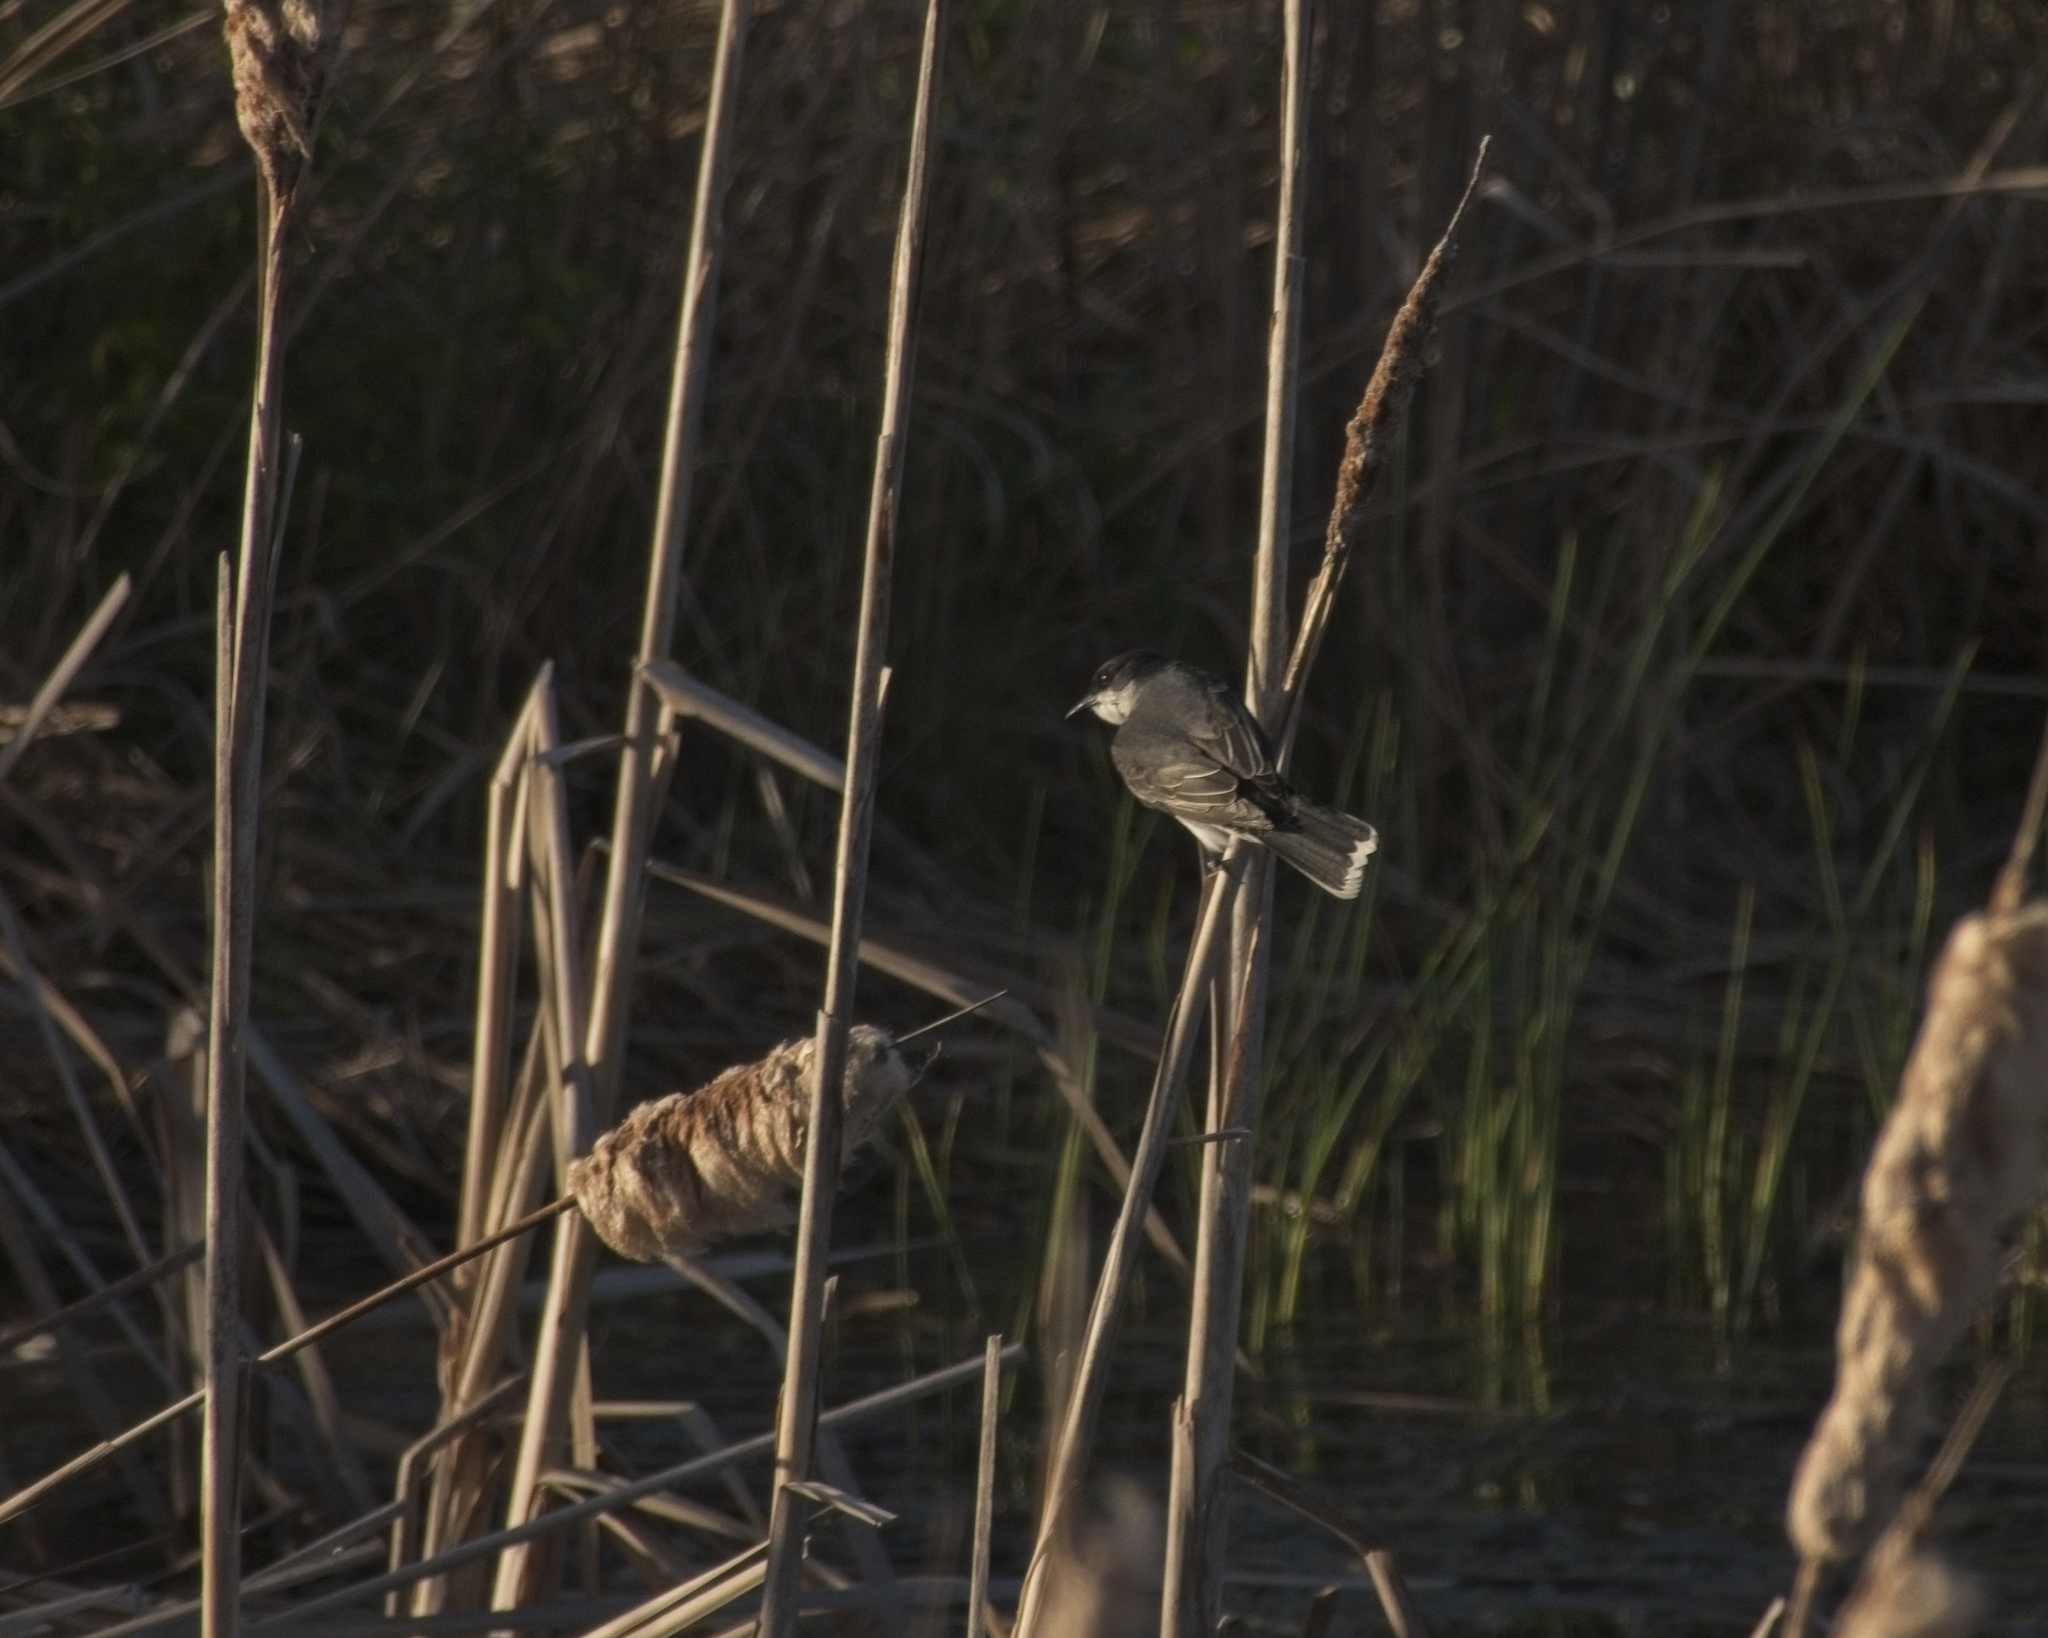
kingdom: Animalia
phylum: Chordata
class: Aves
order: Passeriformes
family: Tyrannidae
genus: Tyrannus
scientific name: Tyrannus tyrannus
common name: Eastern kingbird
